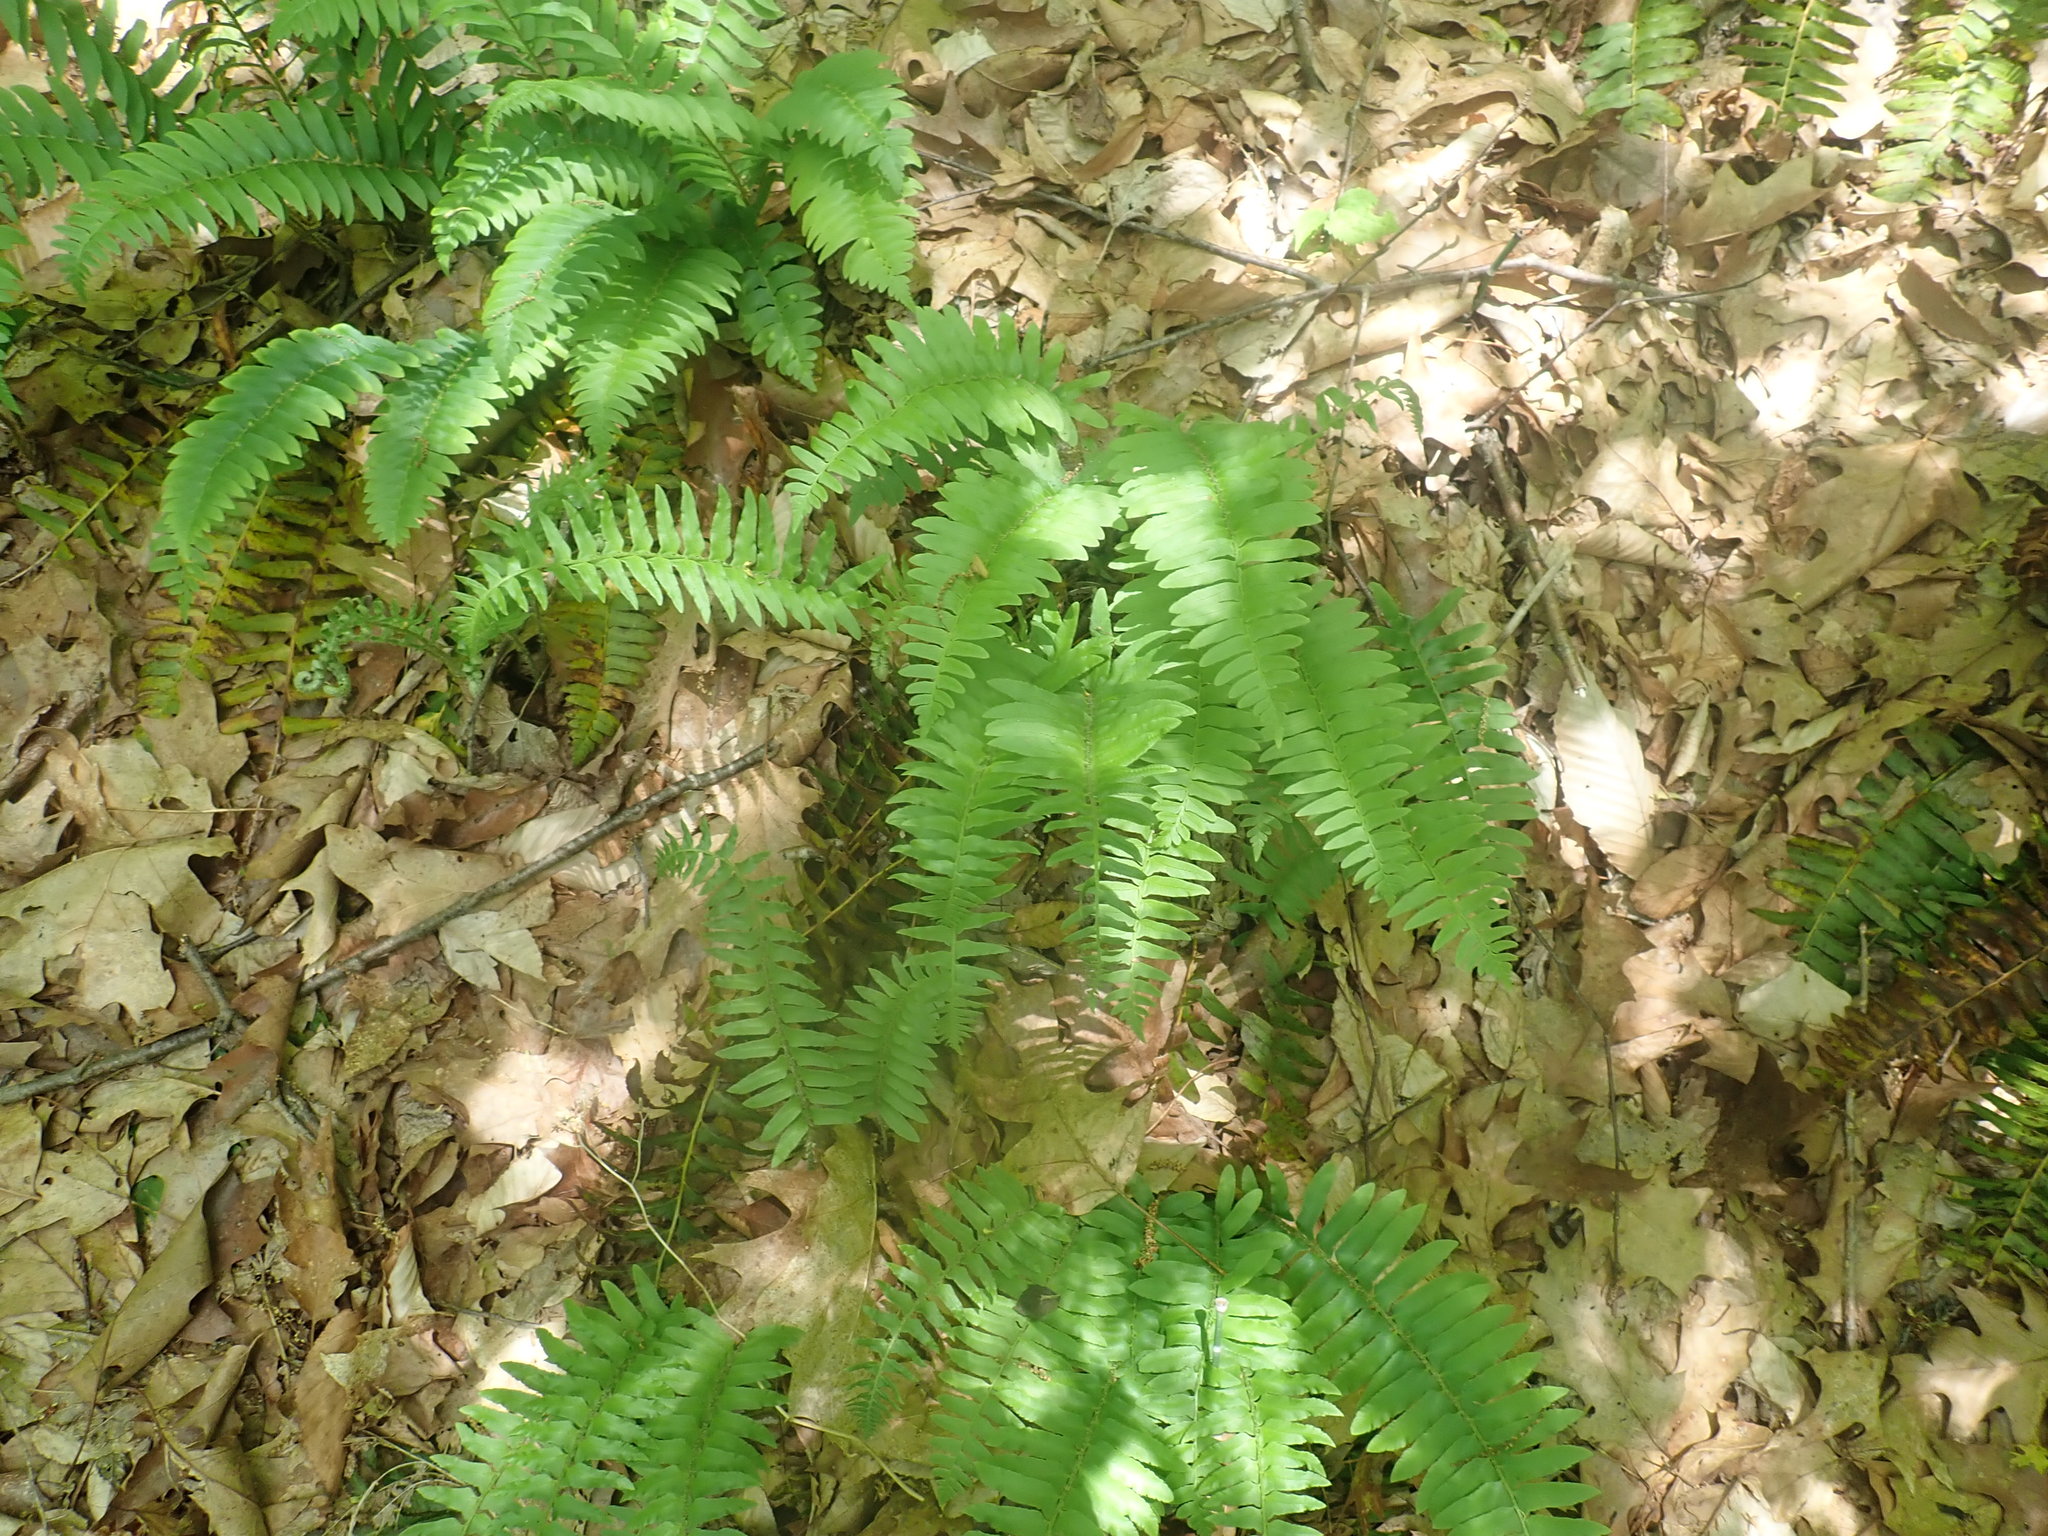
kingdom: Plantae
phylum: Tracheophyta
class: Polypodiopsida
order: Polypodiales
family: Dryopteridaceae
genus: Polystichum
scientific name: Polystichum acrostichoides
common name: Christmas fern
